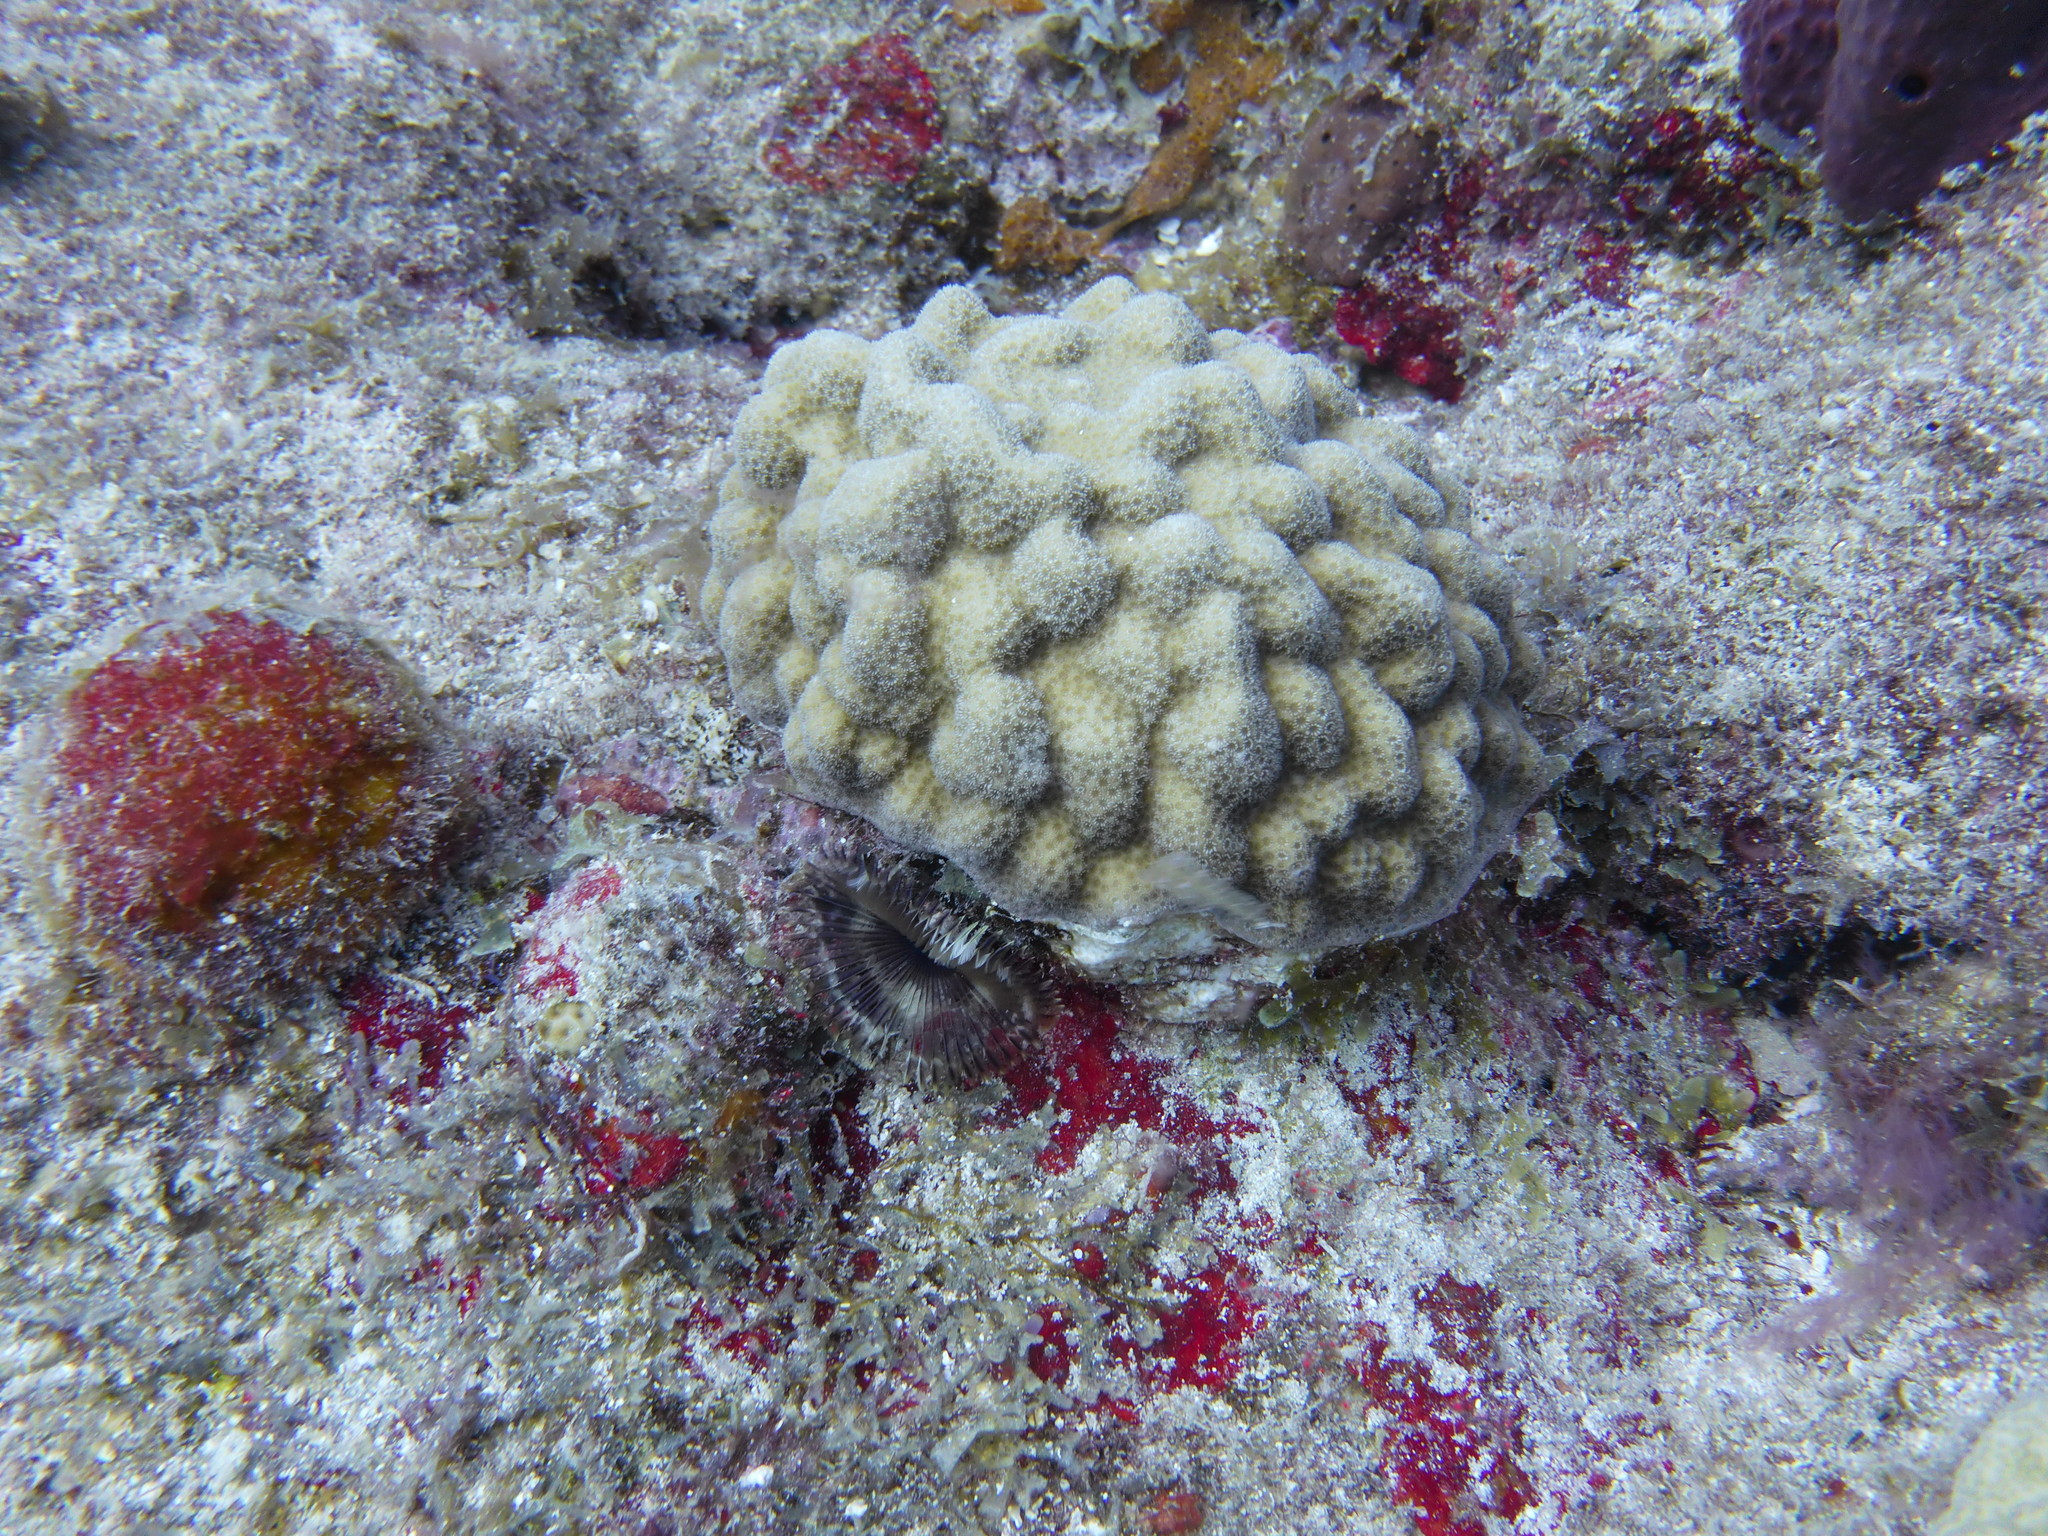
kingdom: Animalia
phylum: Cnidaria
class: Anthozoa
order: Scleractinia
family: Poritidae
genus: Porites
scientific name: Porites astreoides
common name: Mustard hill coral
